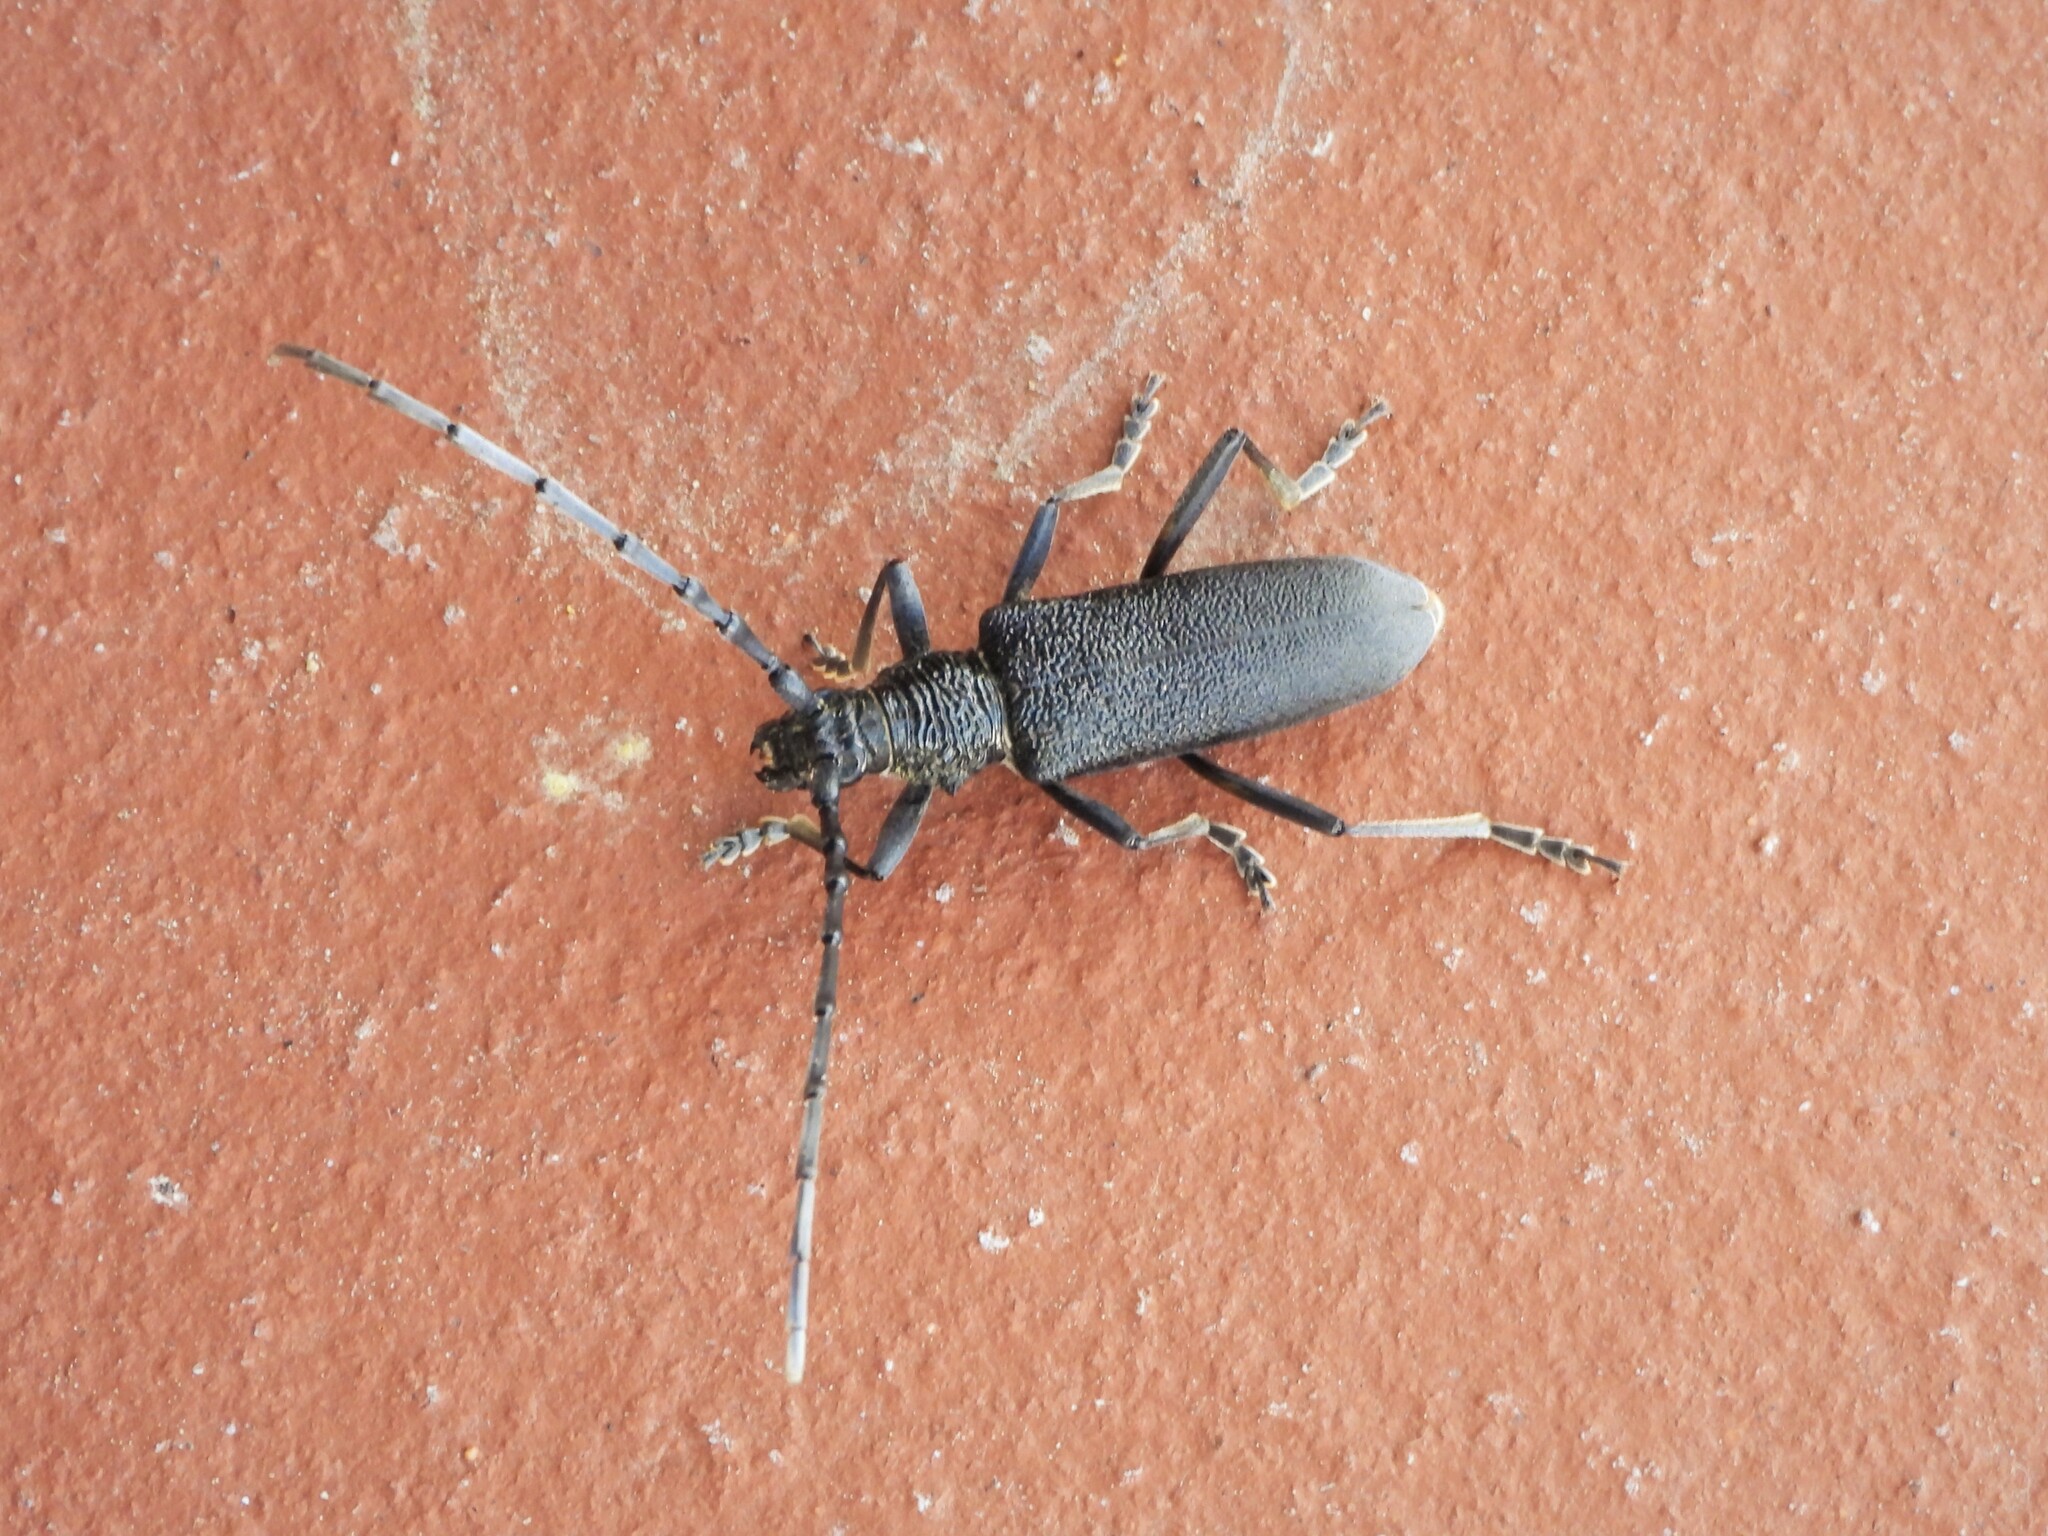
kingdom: Animalia
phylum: Arthropoda
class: Insecta
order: Coleoptera
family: Cerambycidae
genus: Cerambyx
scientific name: Cerambyx scopolii
